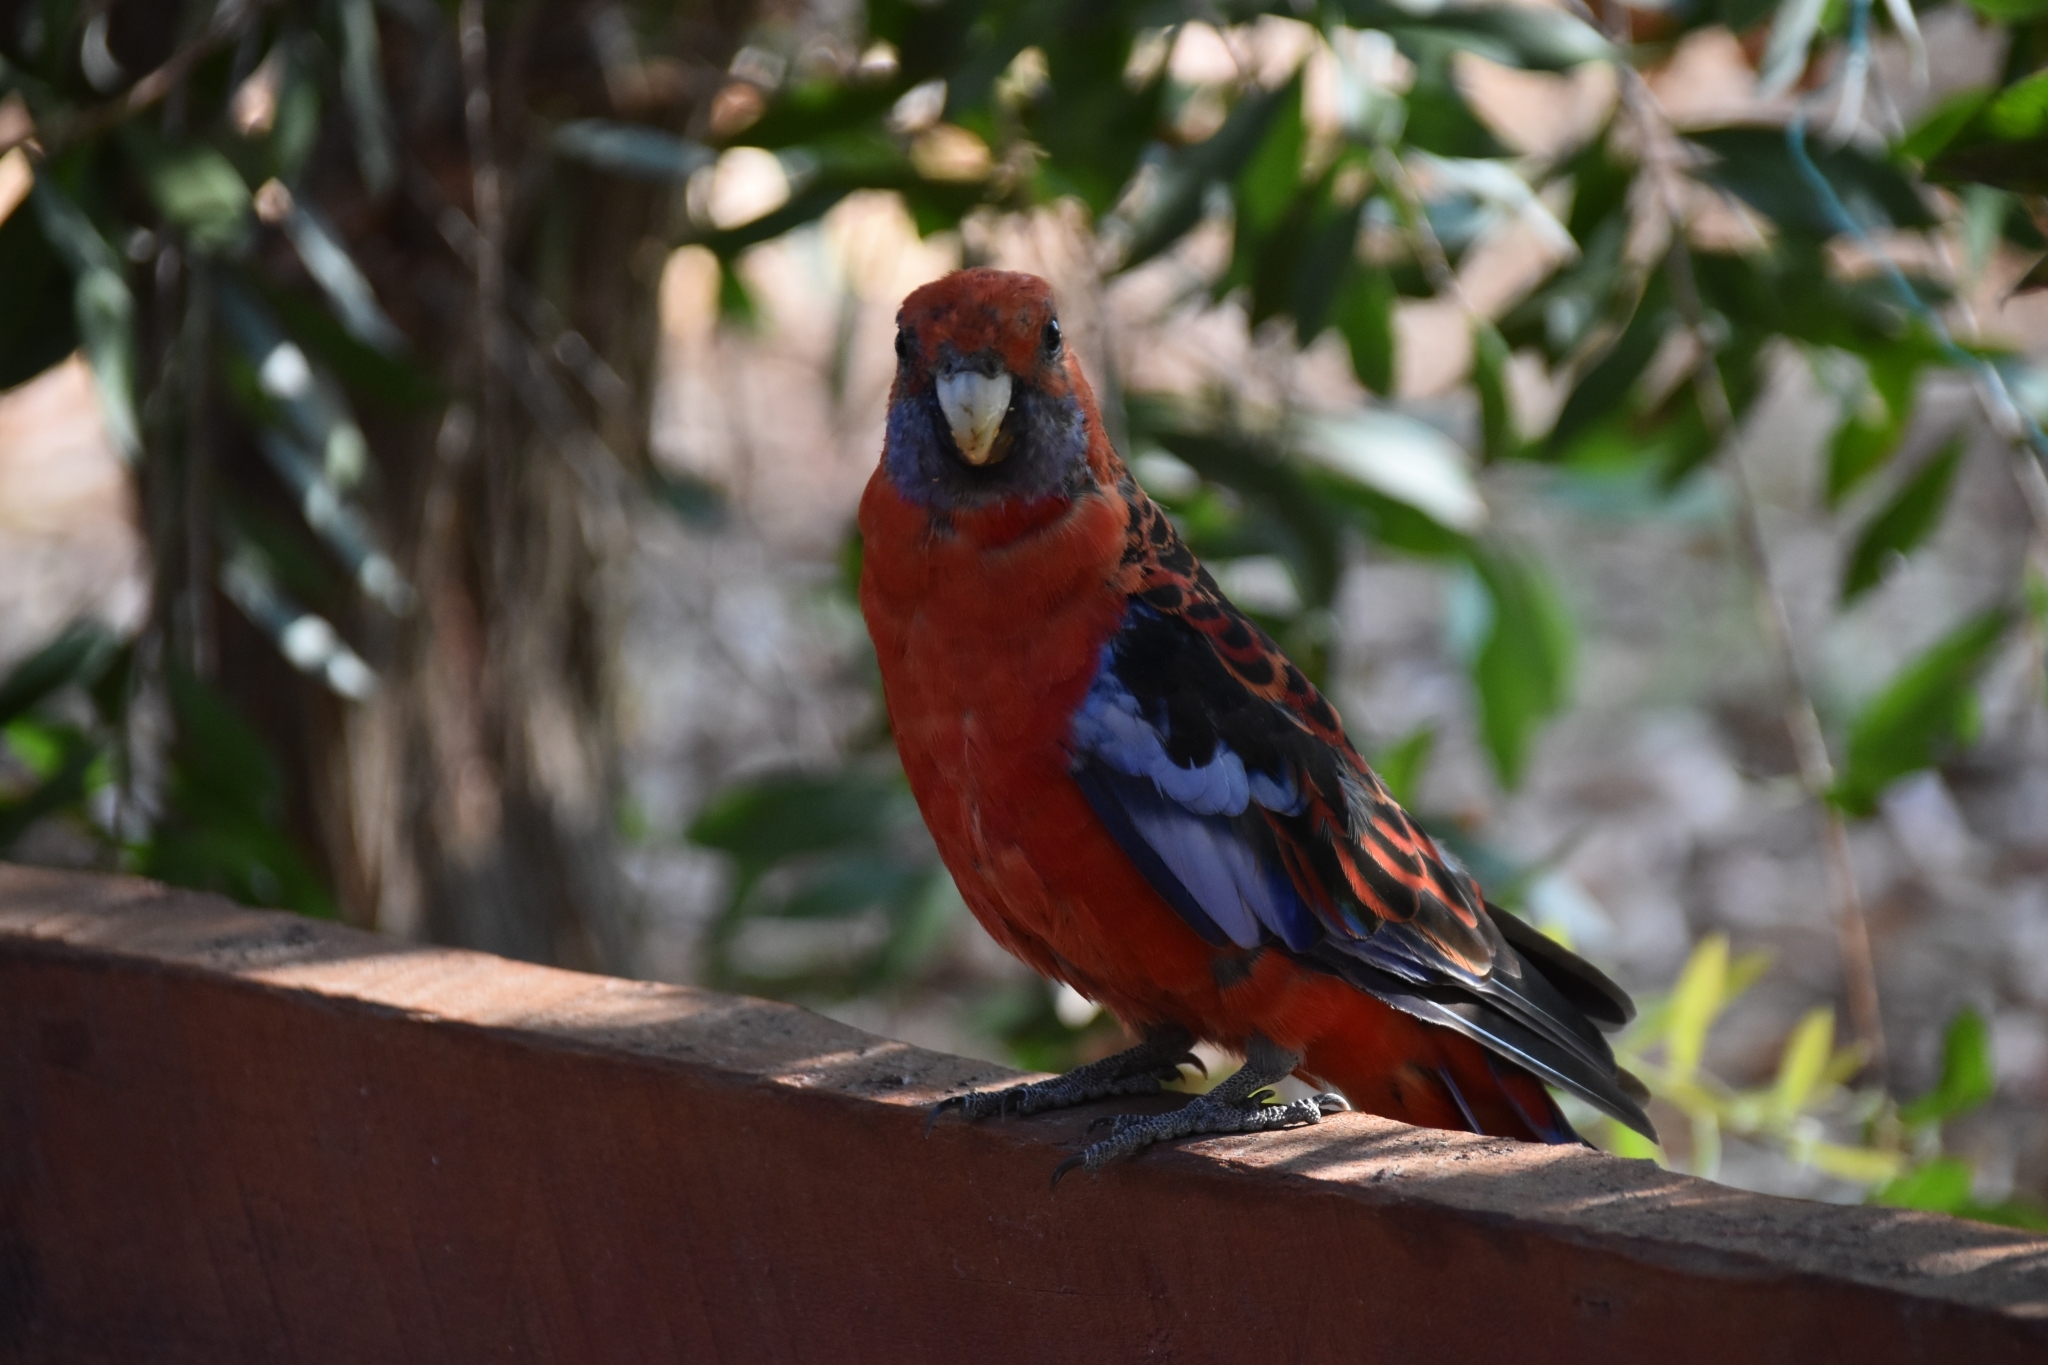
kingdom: Animalia
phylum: Chordata
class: Aves
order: Psittaciformes
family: Psittacidae
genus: Platycercus
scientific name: Platycercus elegans
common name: Crimson rosella
